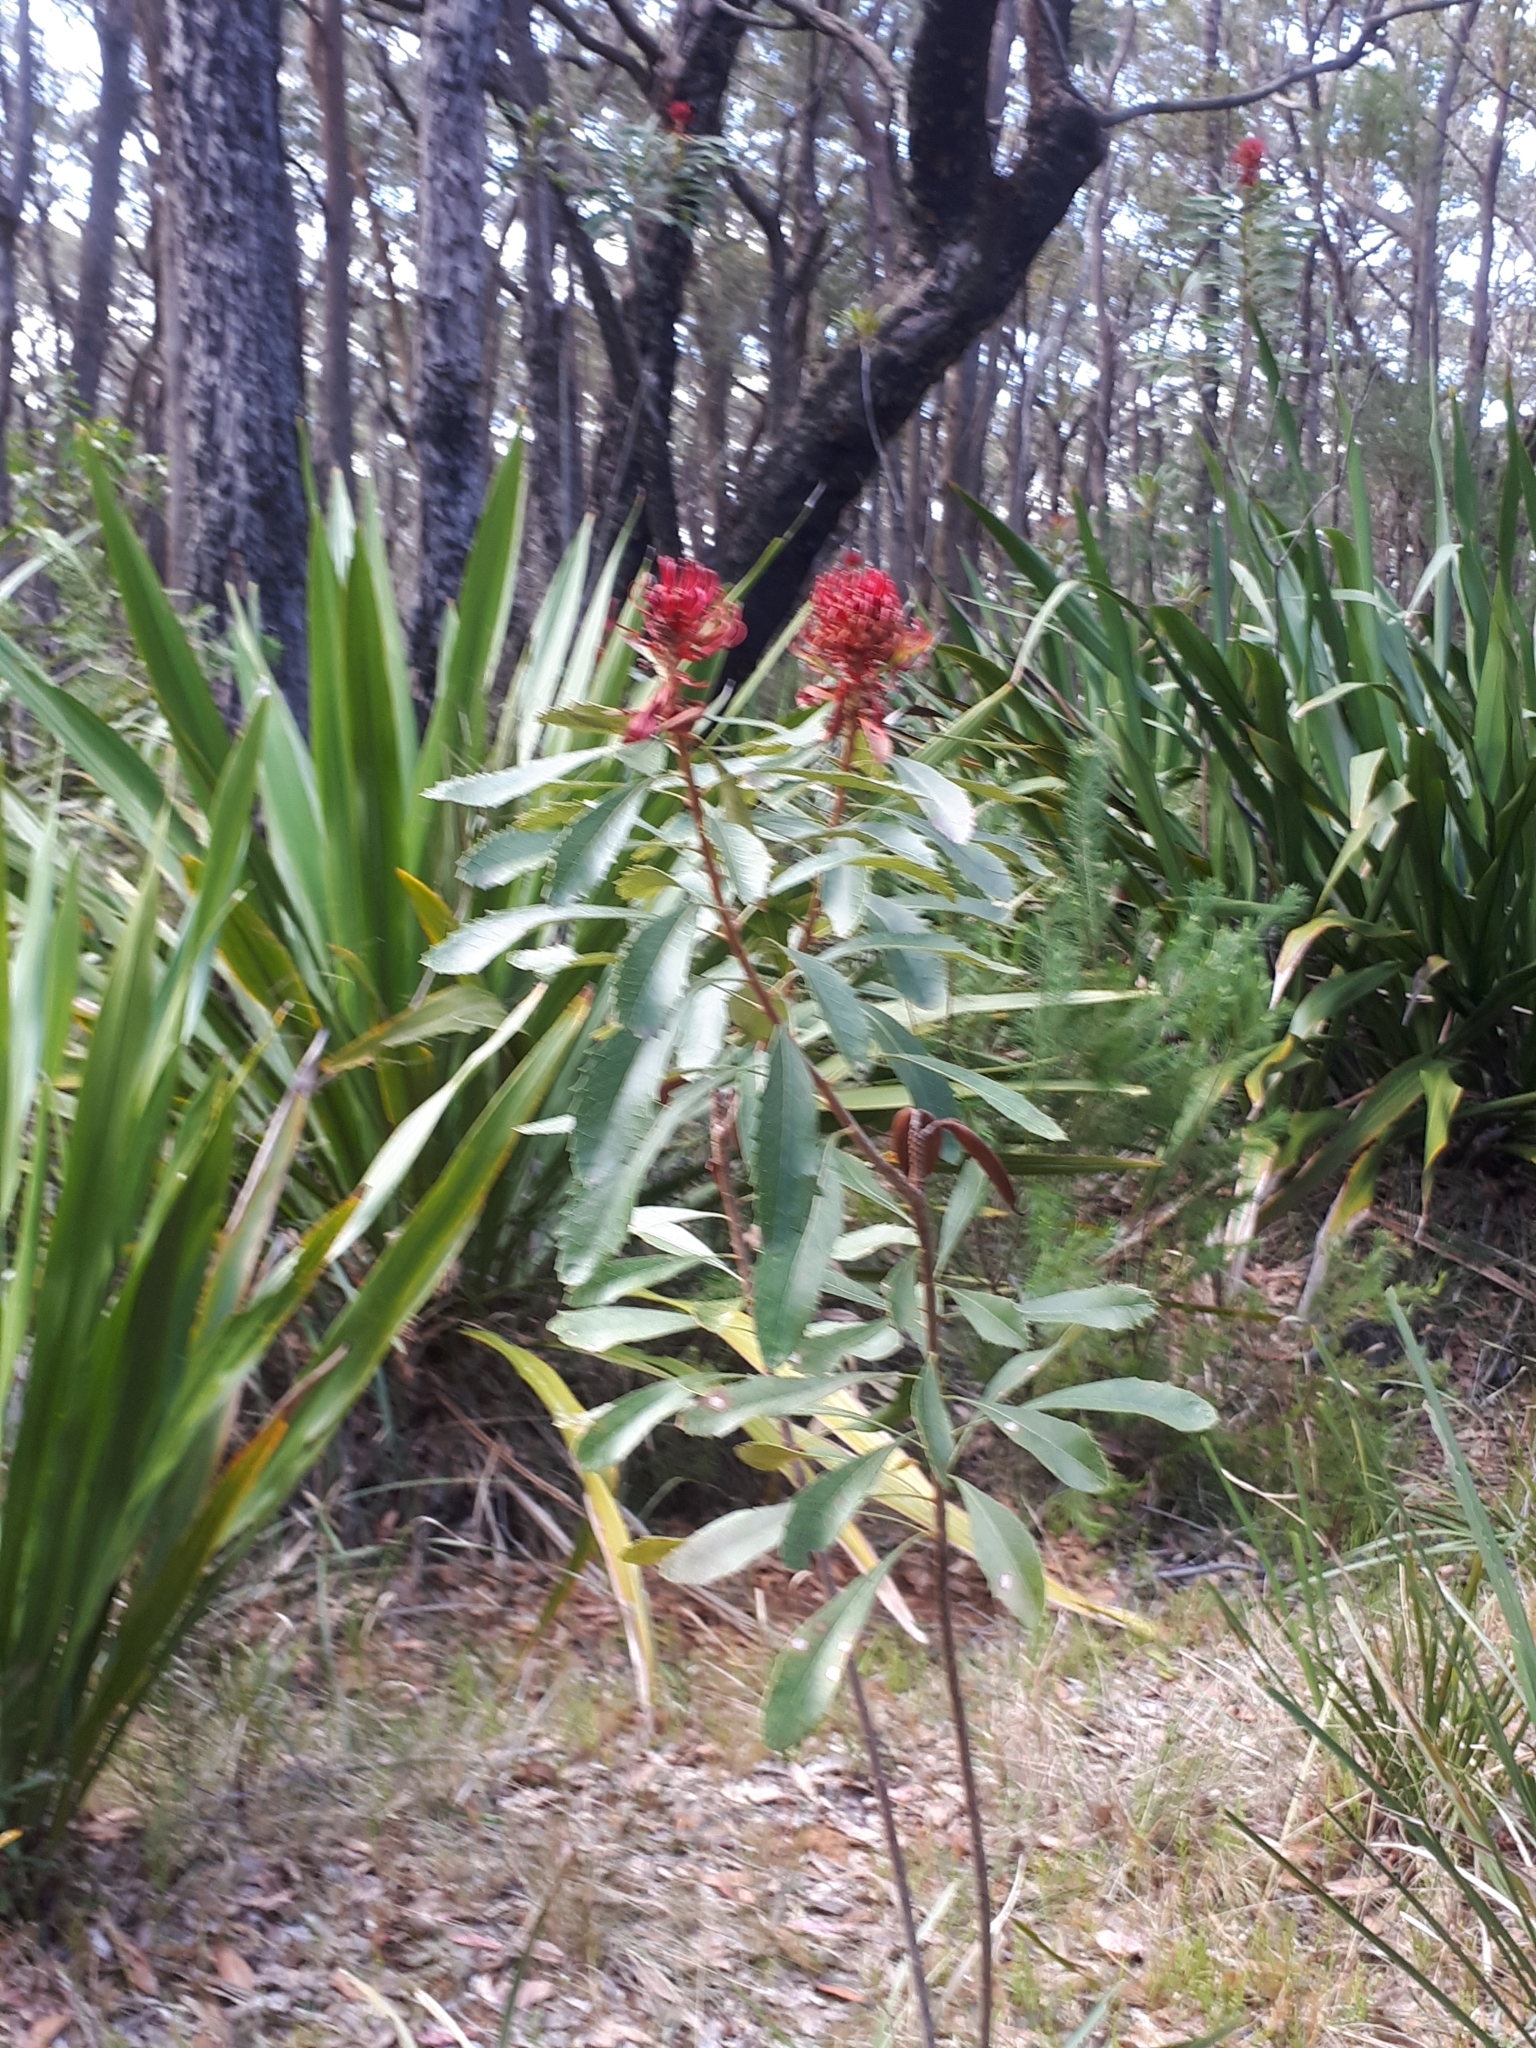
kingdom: Plantae
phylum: Tracheophyta
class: Magnoliopsida
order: Proteales
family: Proteaceae
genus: Telopea
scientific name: Telopea speciosissima
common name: New south wales waratah
